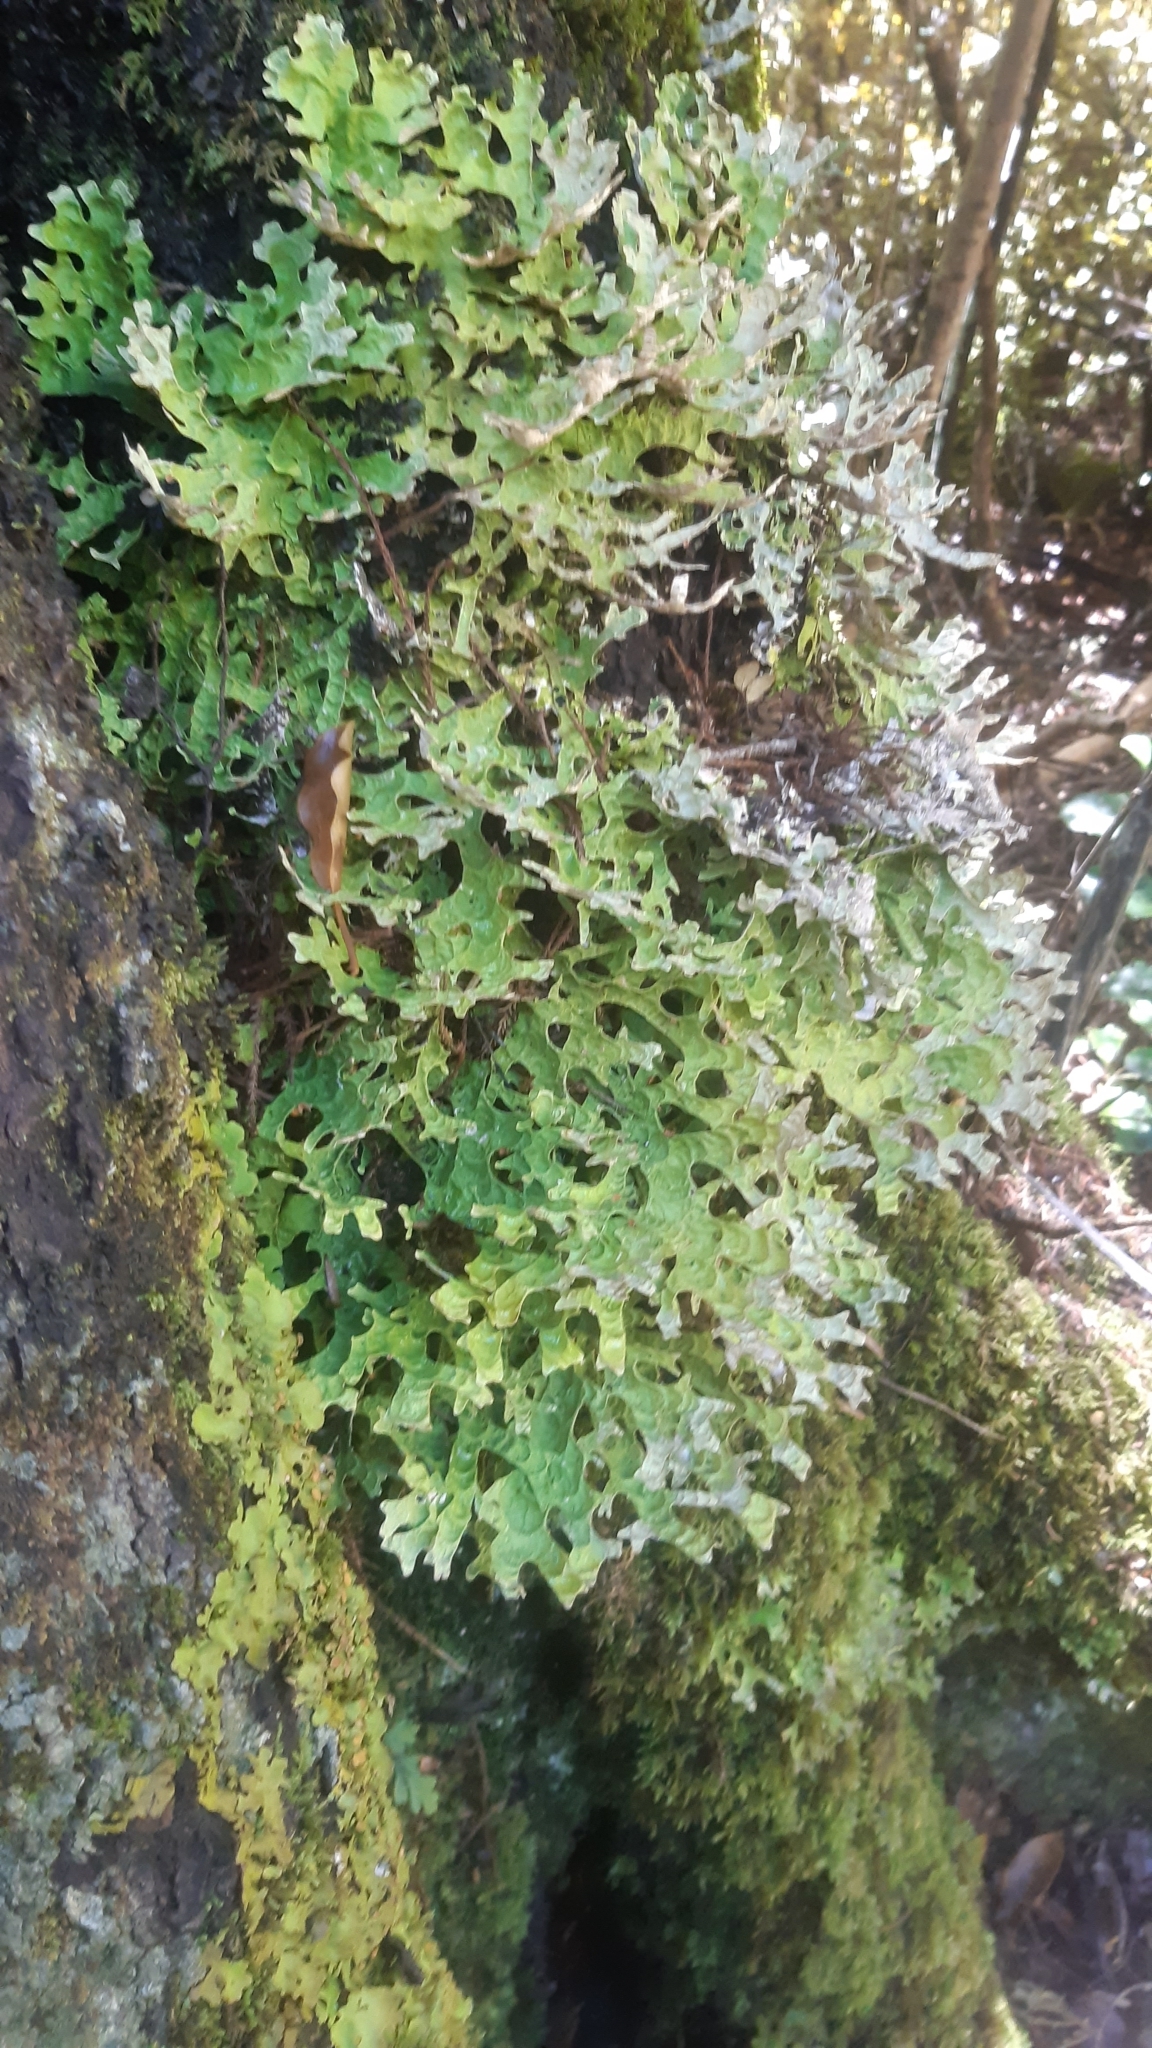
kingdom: Fungi
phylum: Ascomycota
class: Lecanoromycetes
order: Peltigerales
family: Lobariaceae
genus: Pseudocyphellaria
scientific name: Pseudocyphellaria rufovirescens
